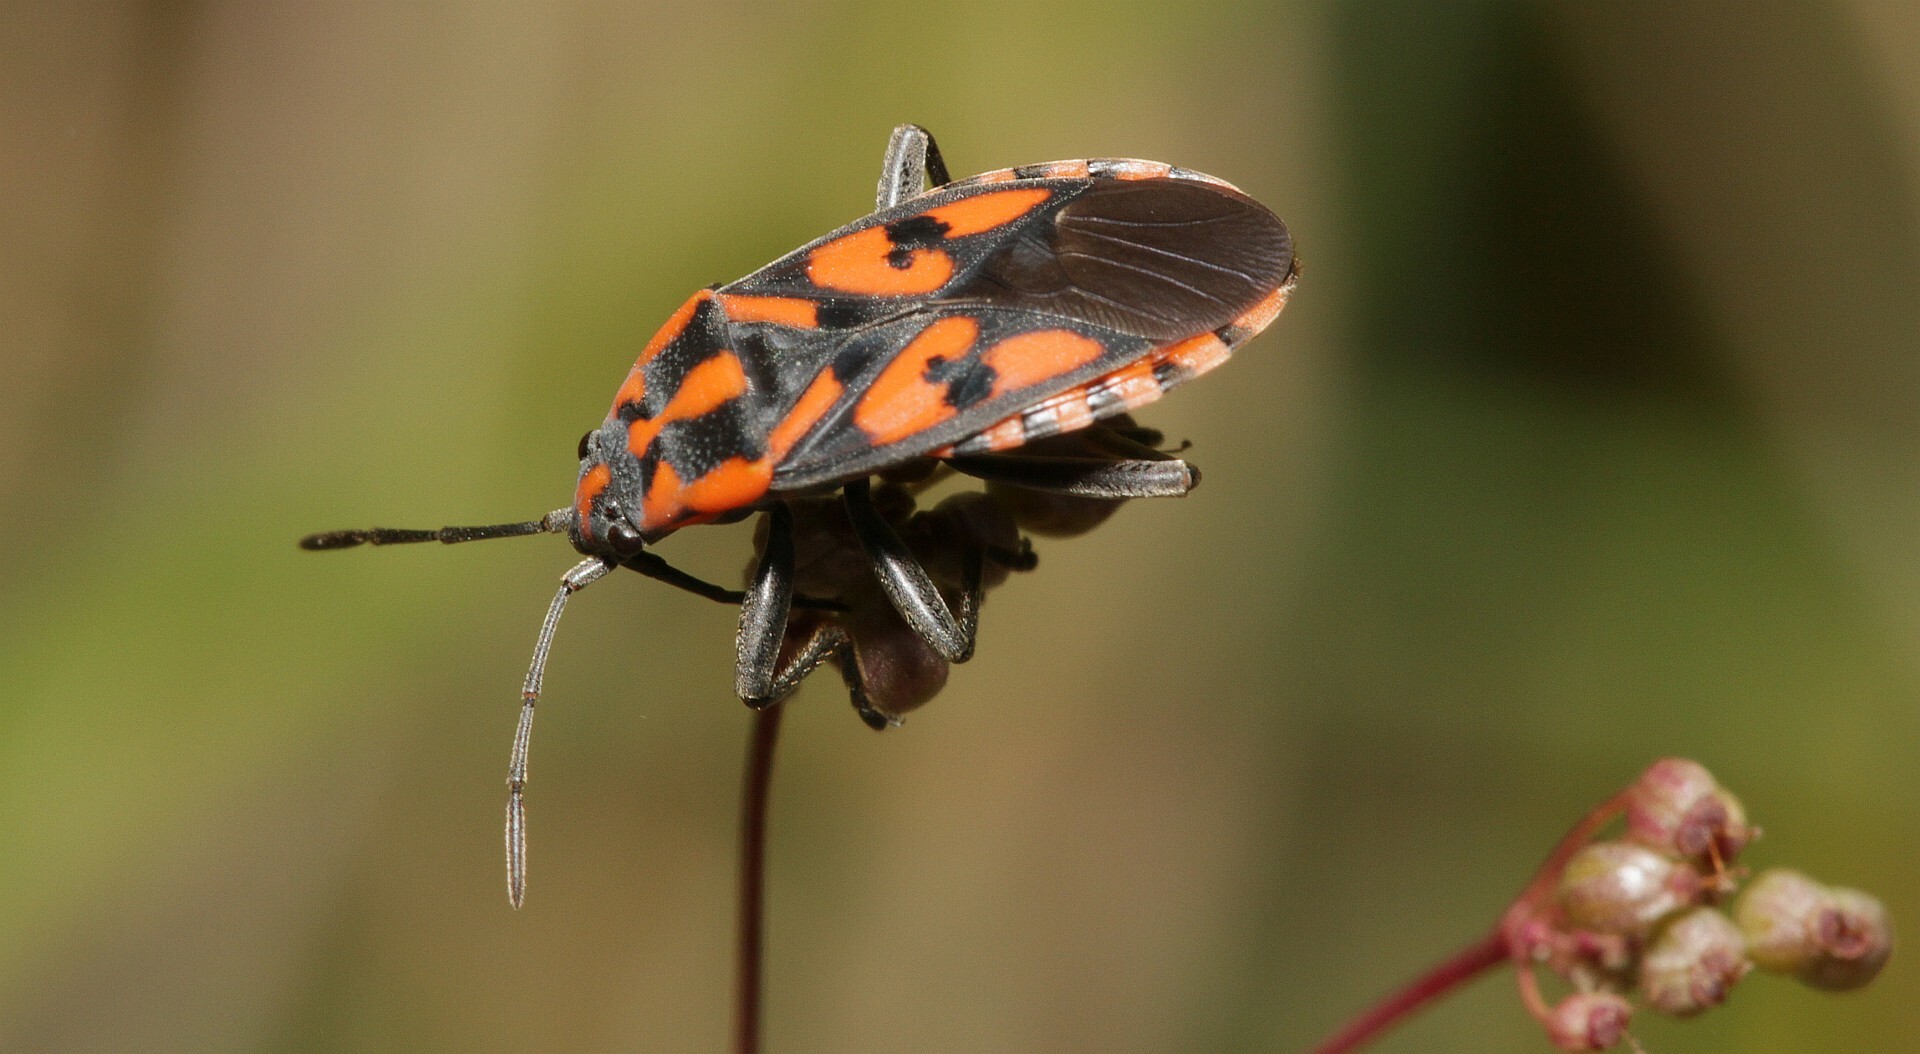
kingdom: Animalia
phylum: Arthropoda
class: Insecta
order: Hemiptera
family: Lygaeidae
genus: Spilostethus
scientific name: Spilostethus saxatilis
